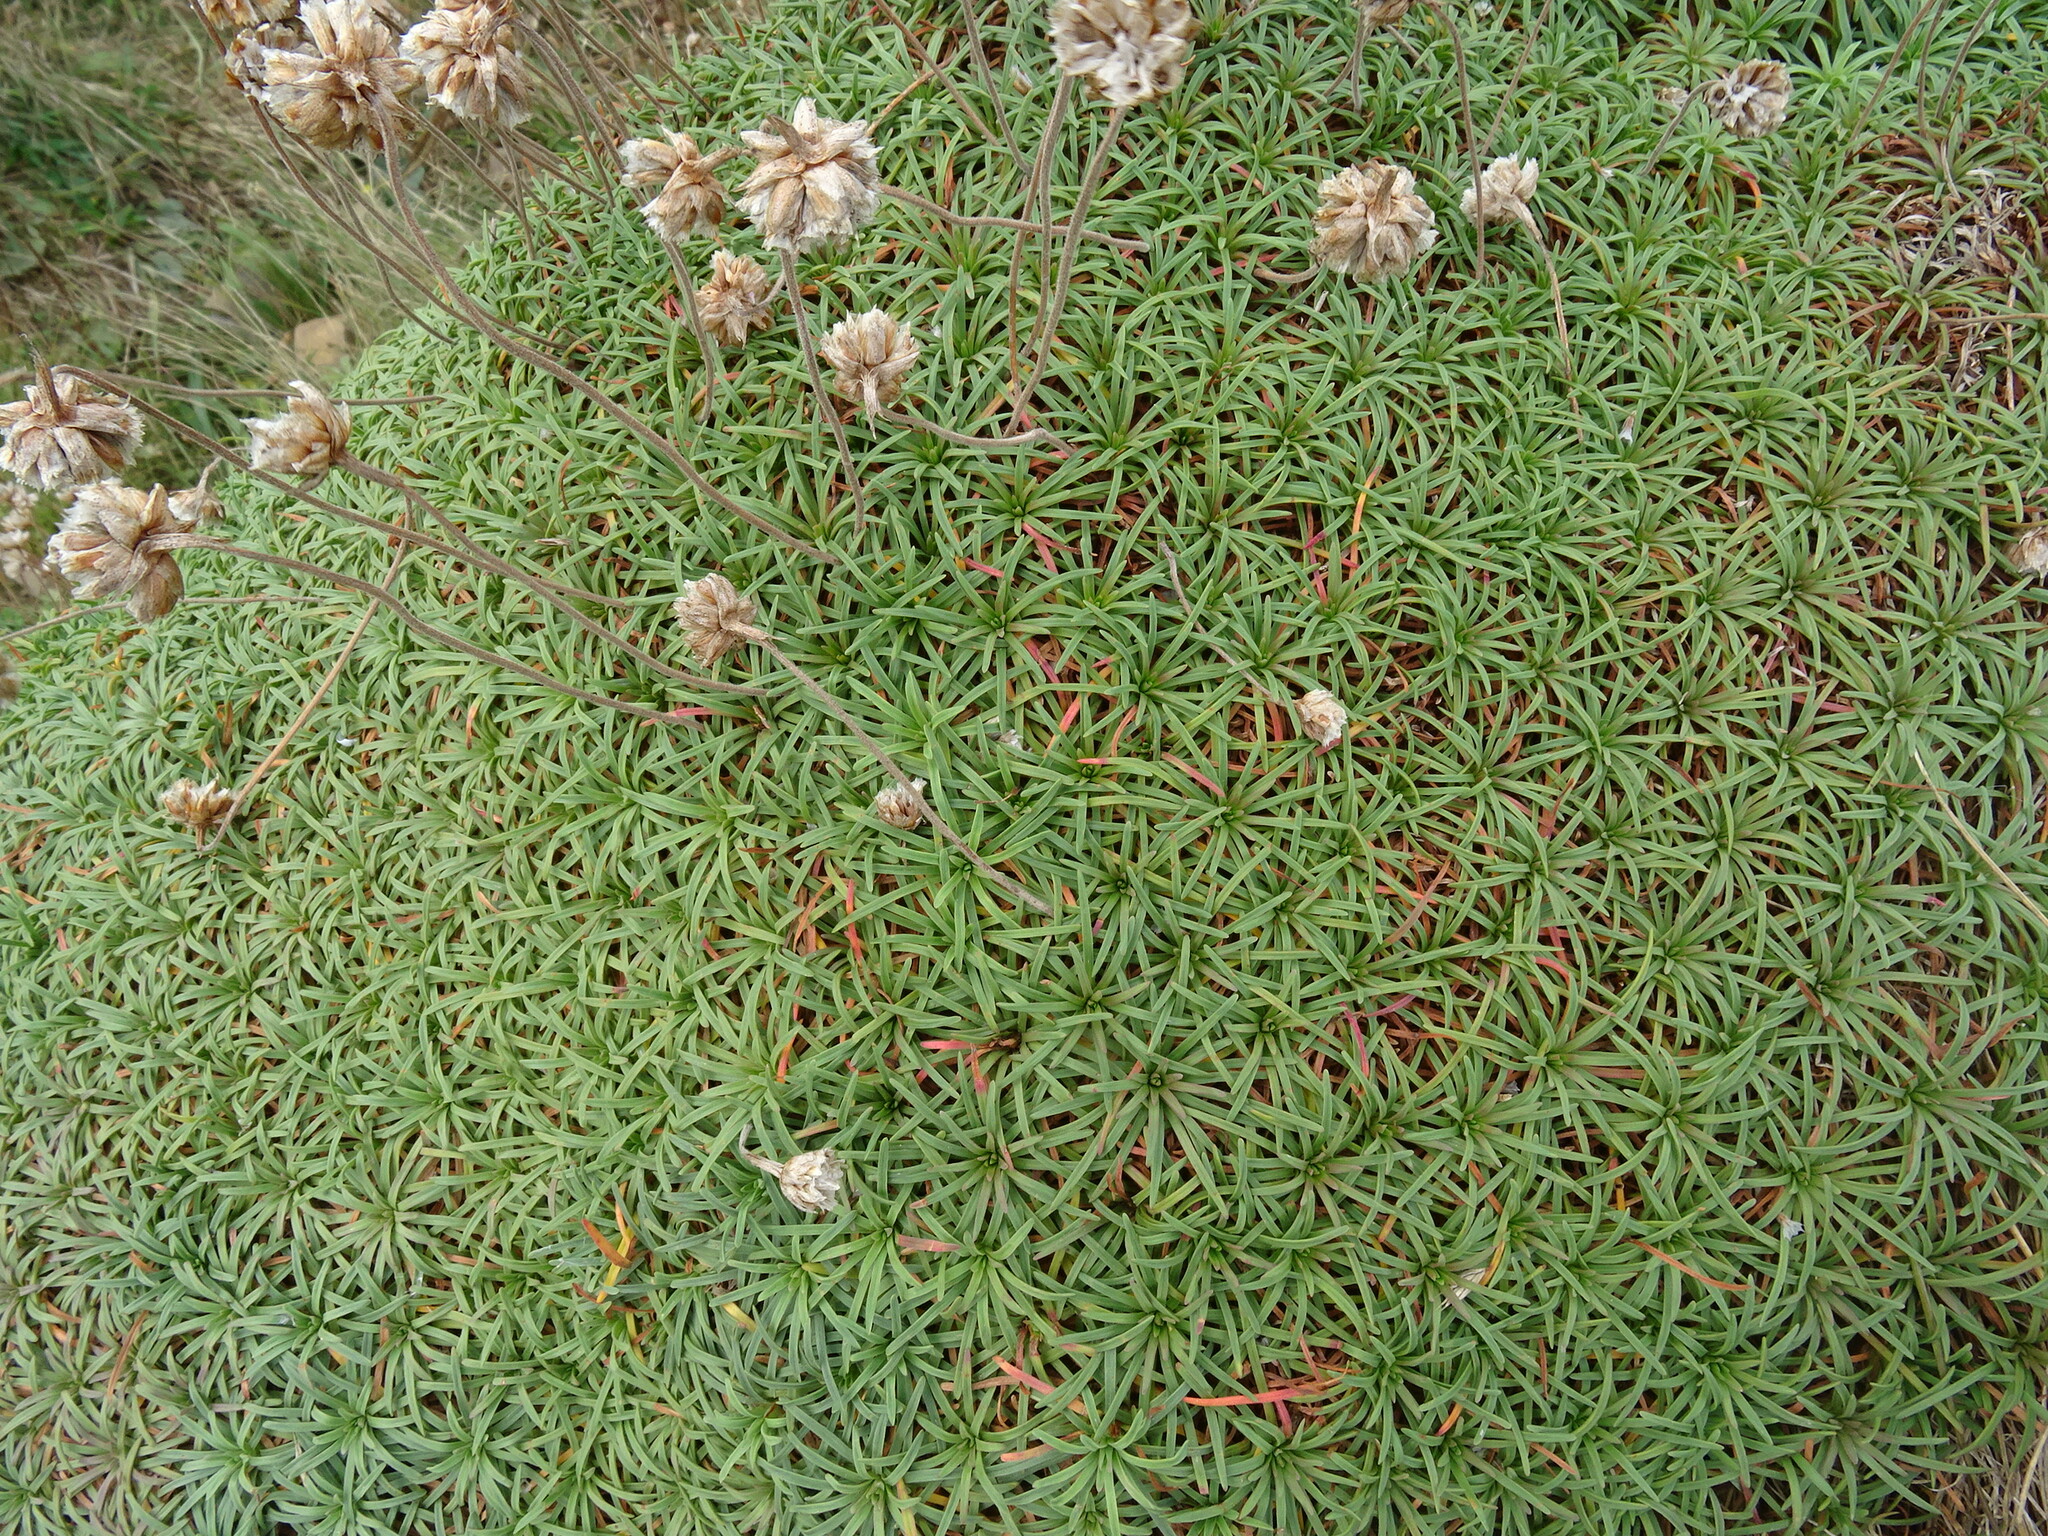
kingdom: Plantae
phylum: Tracheophyta
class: Magnoliopsida
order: Caryophyllales
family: Plumbaginaceae
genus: Armeria
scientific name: Armeria maritima
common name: Thrift
